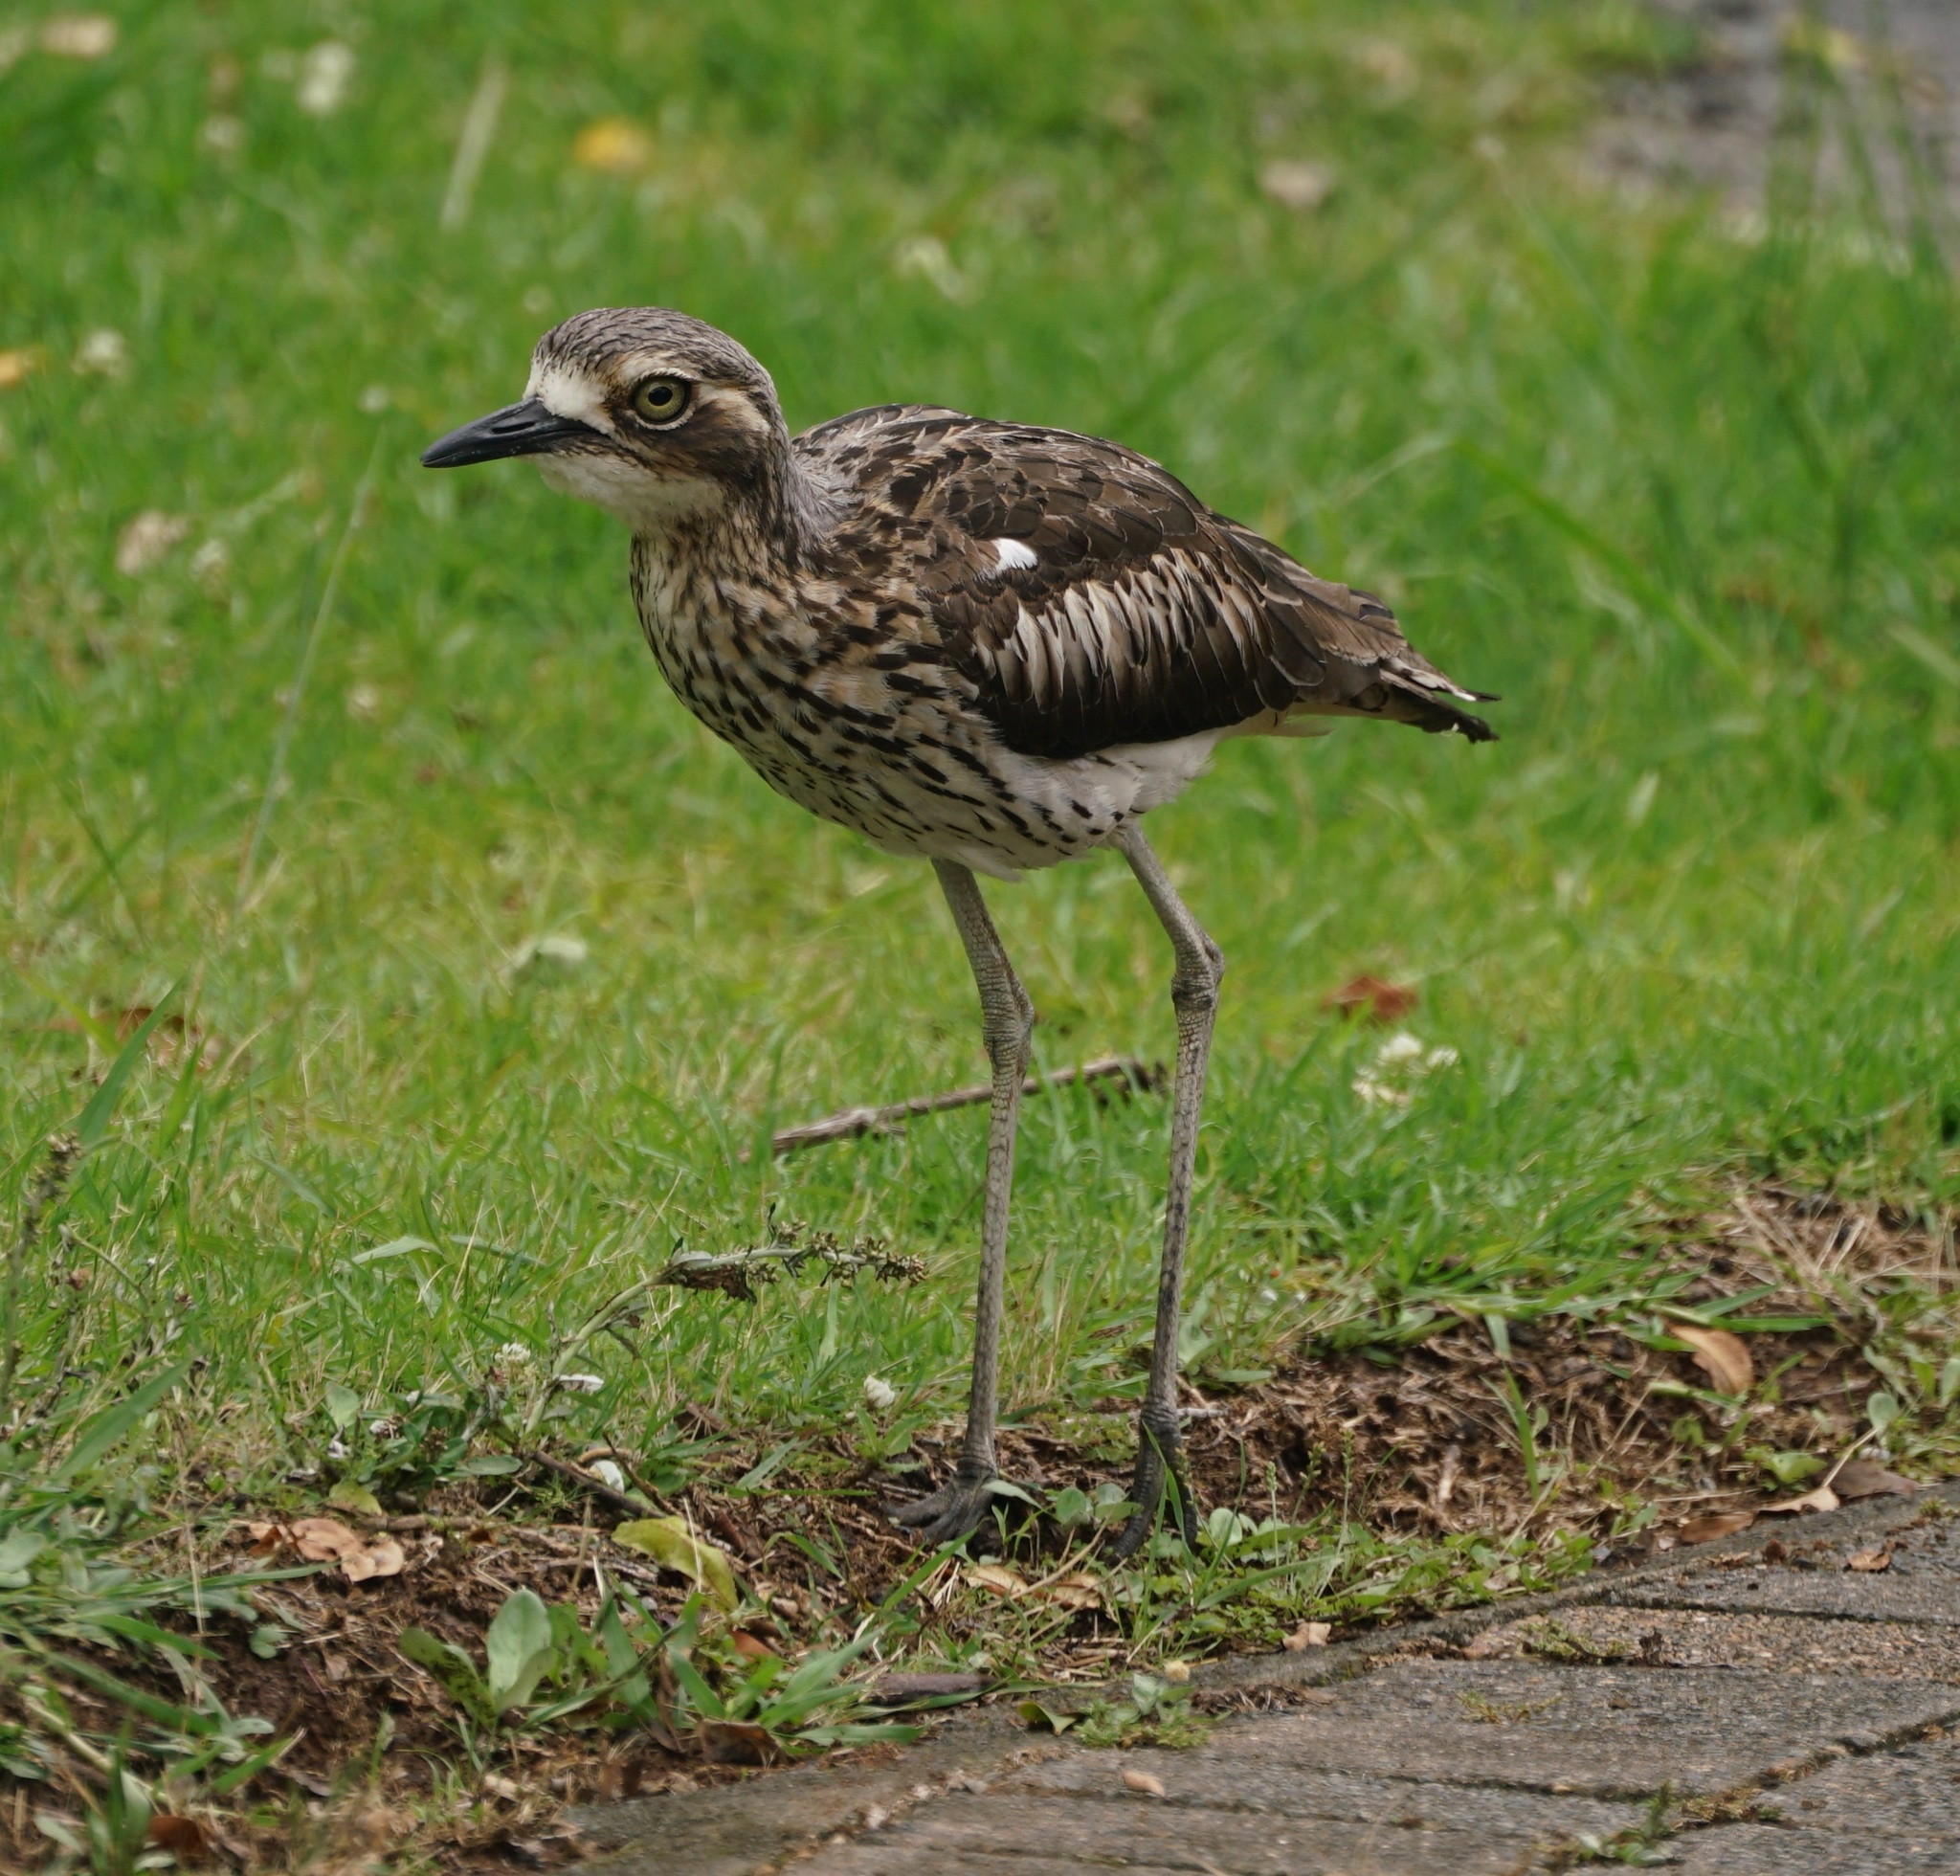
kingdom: Animalia
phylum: Chordata
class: Aves
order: Charadriiformes
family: Burhinidae
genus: Burhinus
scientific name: Burhinus grallarius
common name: Bush stone-curlew
